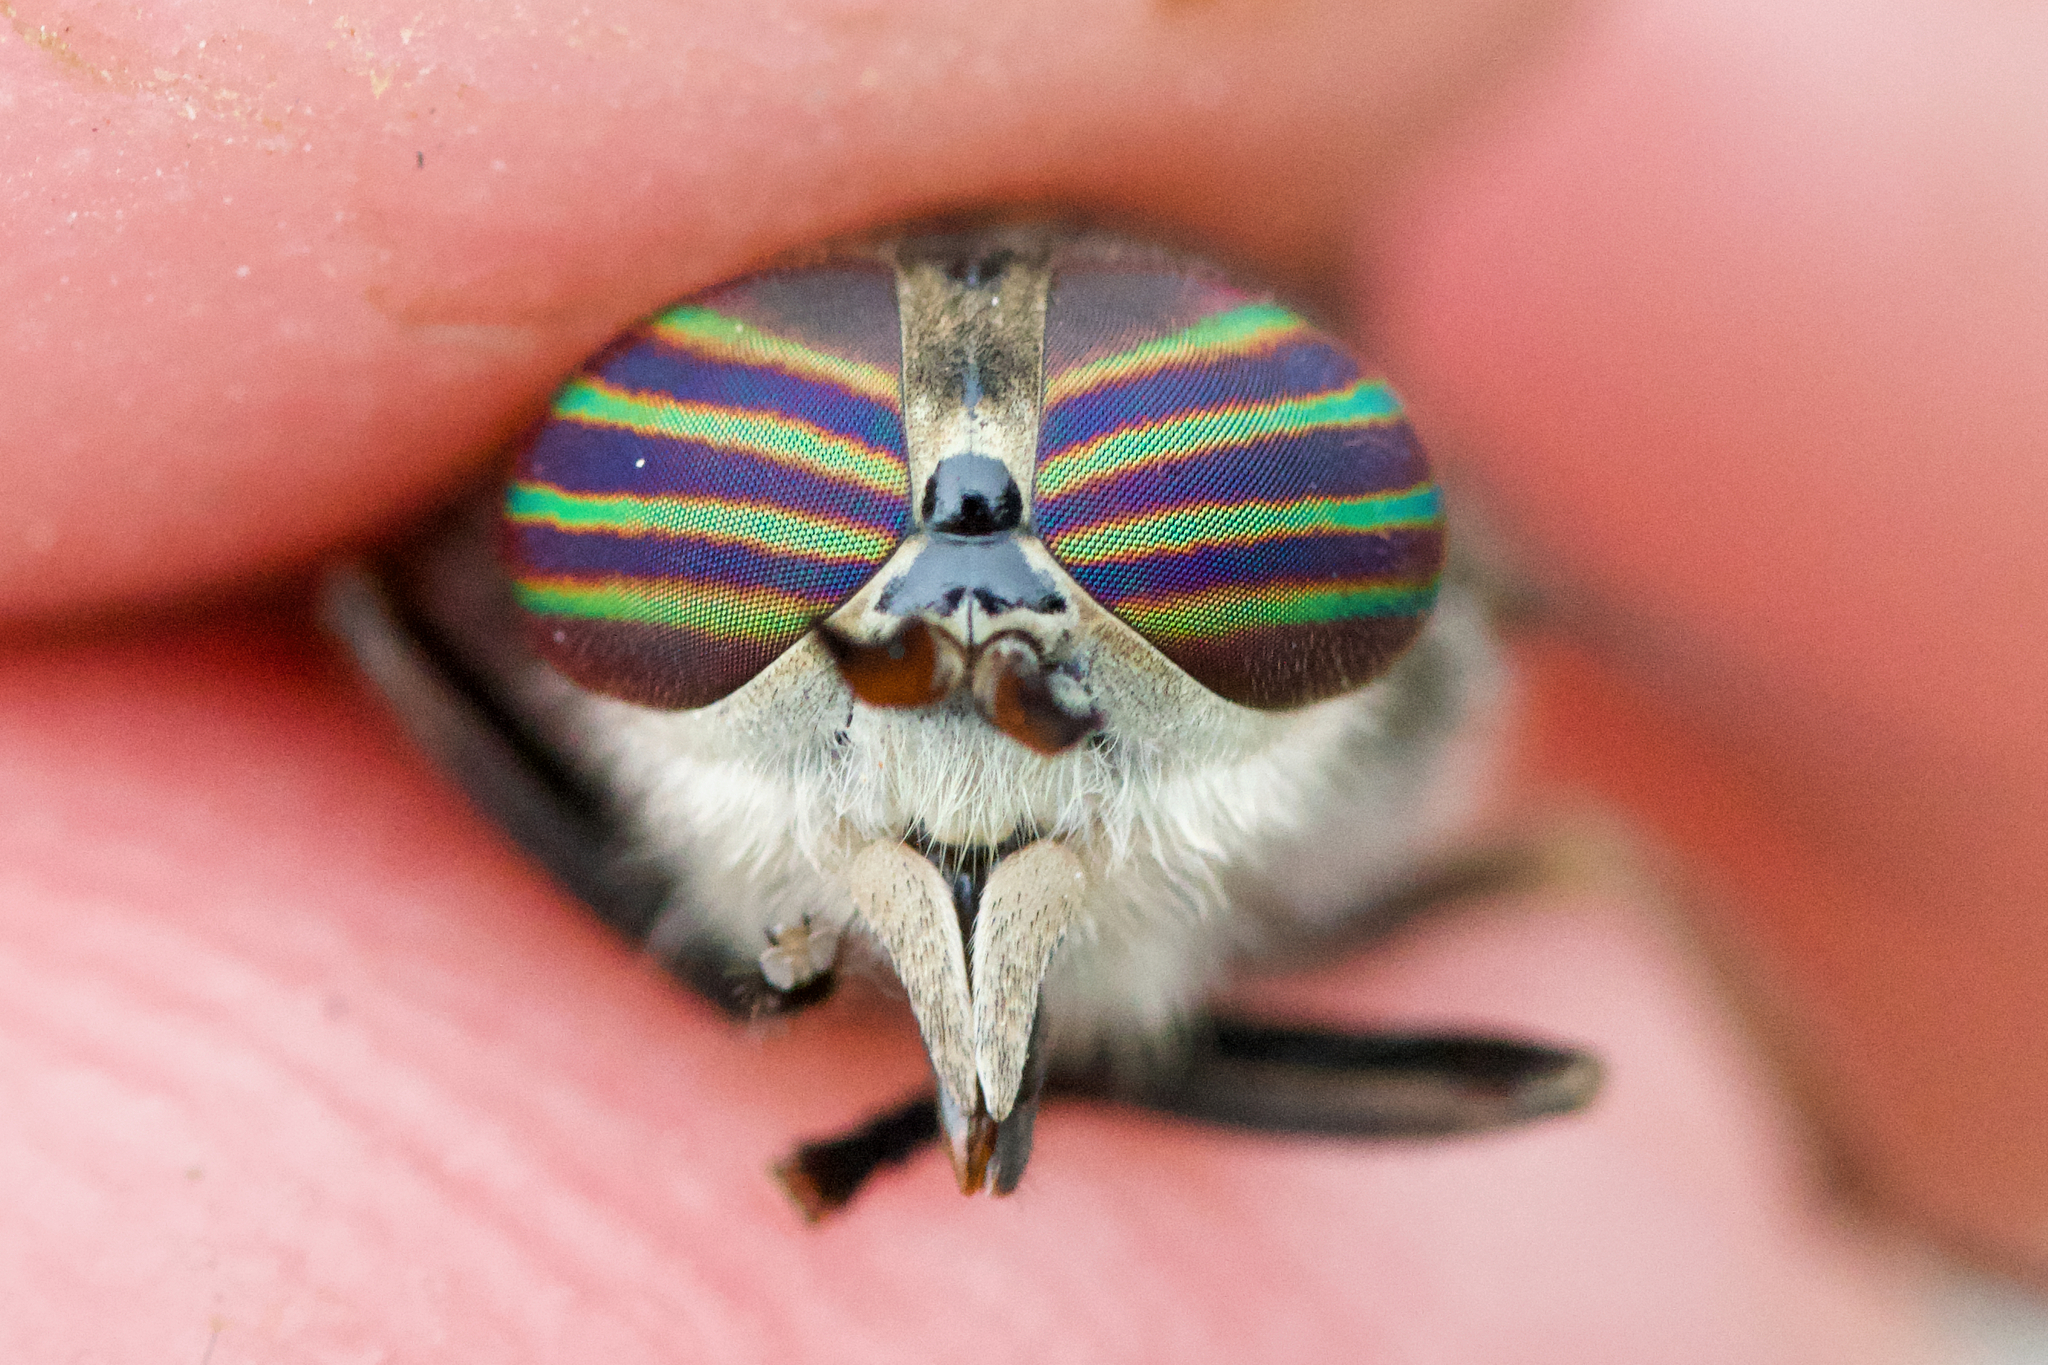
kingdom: Animalia
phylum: Arthropoda
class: Insecta
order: Diptera
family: Tabanidae
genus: Hybomitra
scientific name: Hybomitra lasiophthalma
